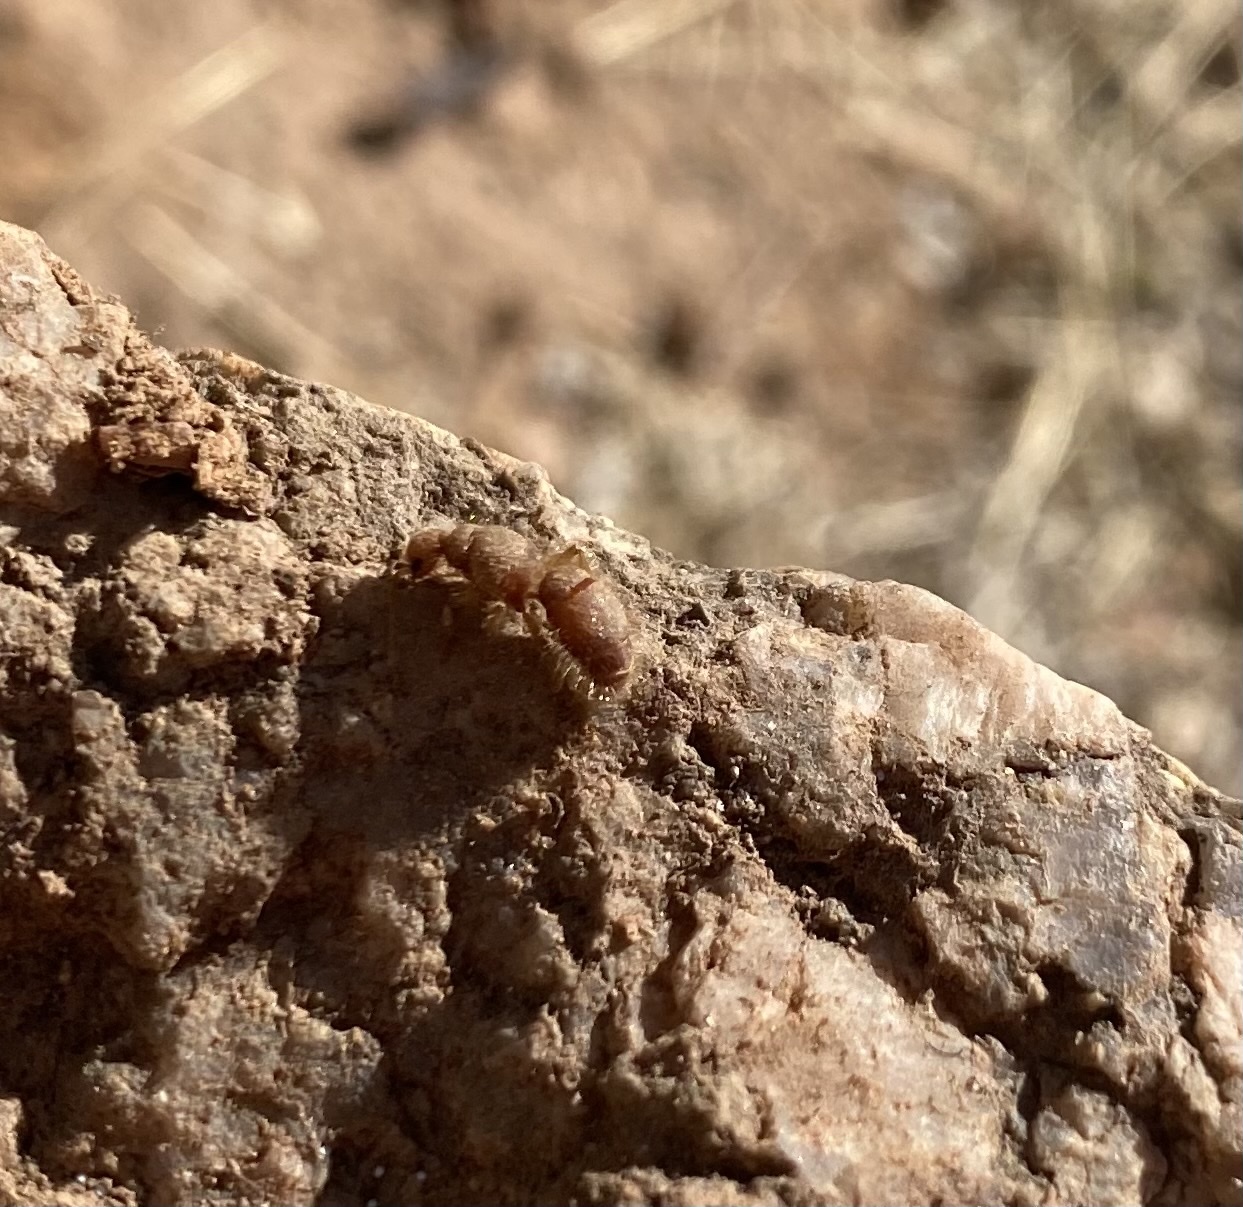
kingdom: Animalia
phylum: Arthropoda
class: Insecta
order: Hymenoptera
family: Chyphotidae
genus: Chyphotes
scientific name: Chyphotes
